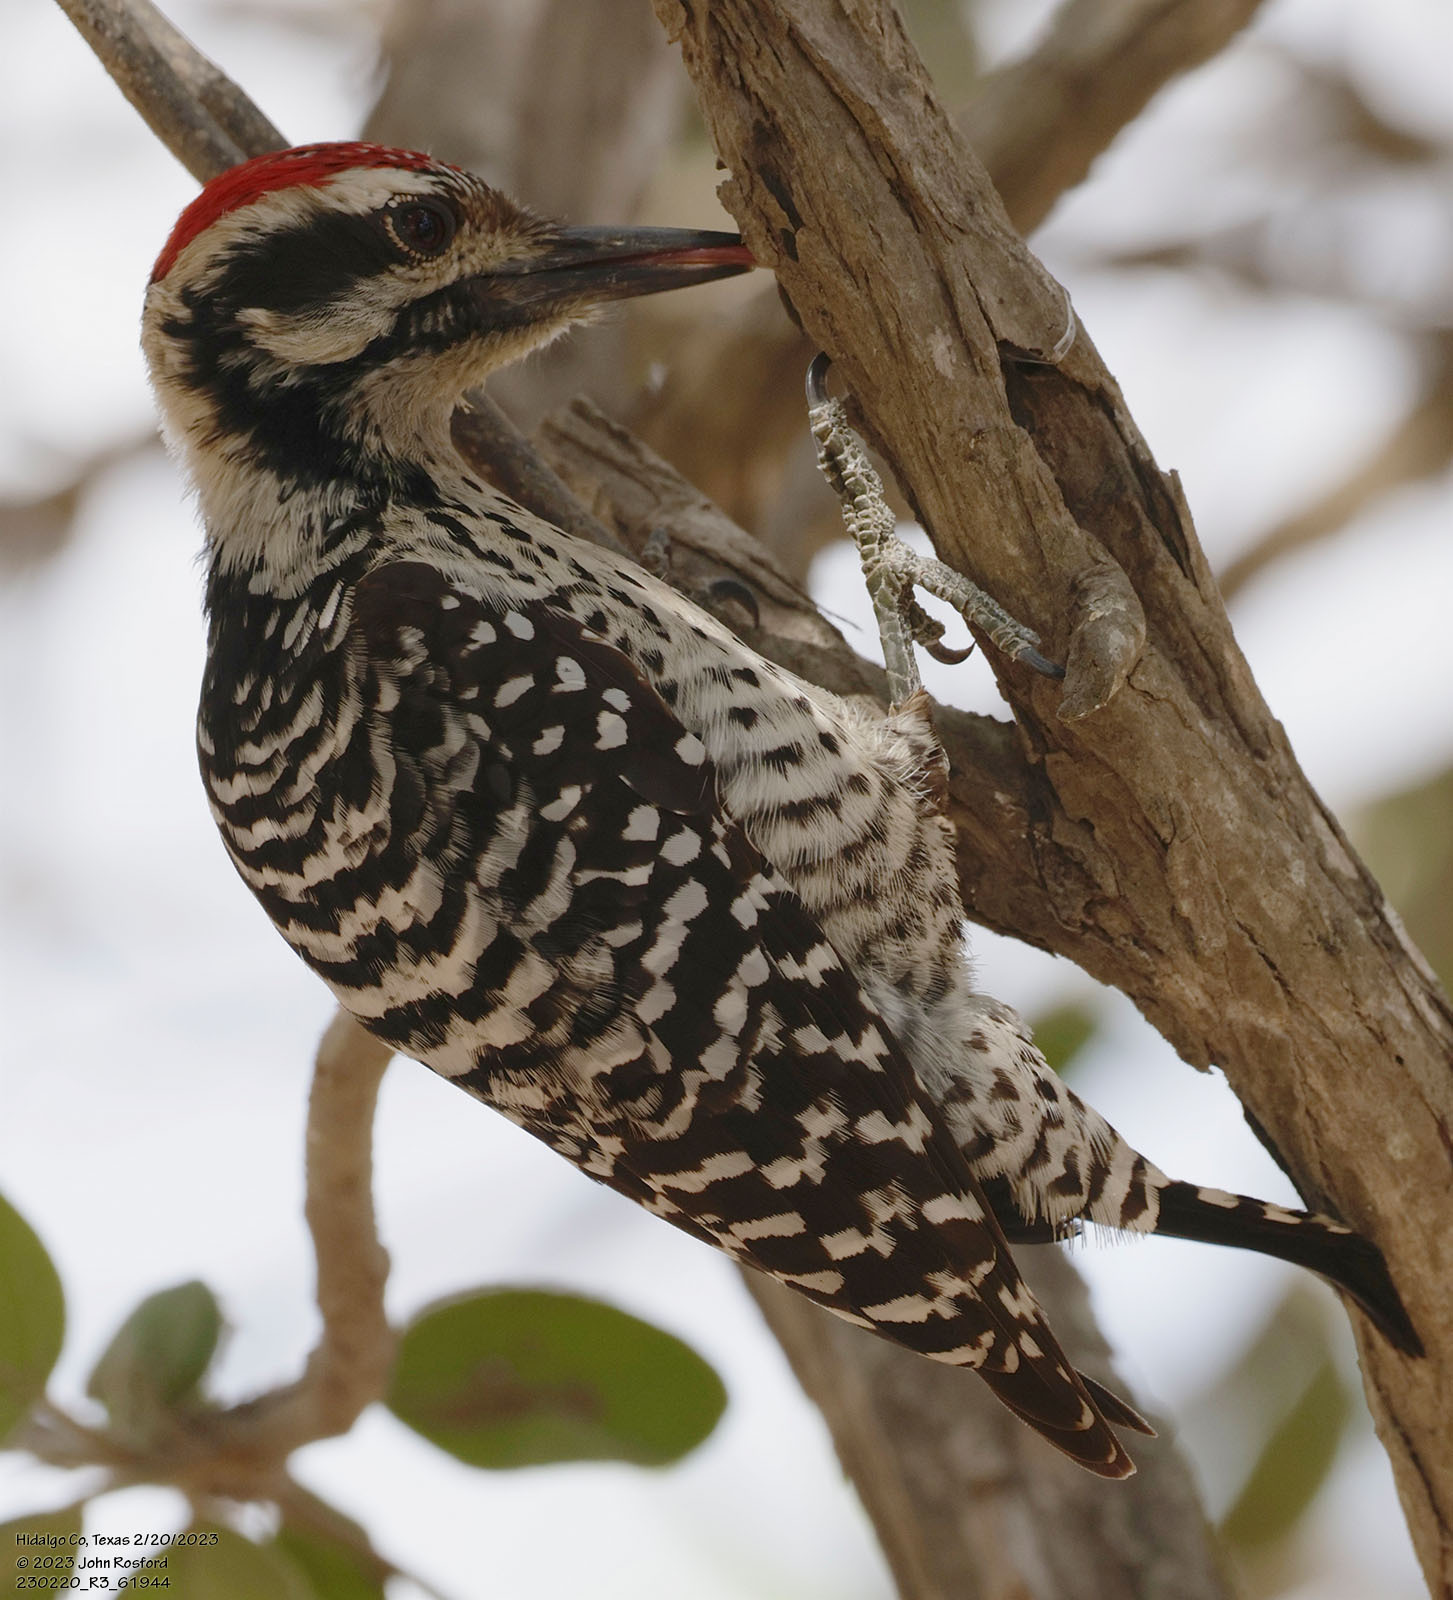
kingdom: Animalia
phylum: Chordata
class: Aves
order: Piciformes
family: Picidae
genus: Dryobates
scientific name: Dryobates scalaris
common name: Ladder-backed woodpecker
